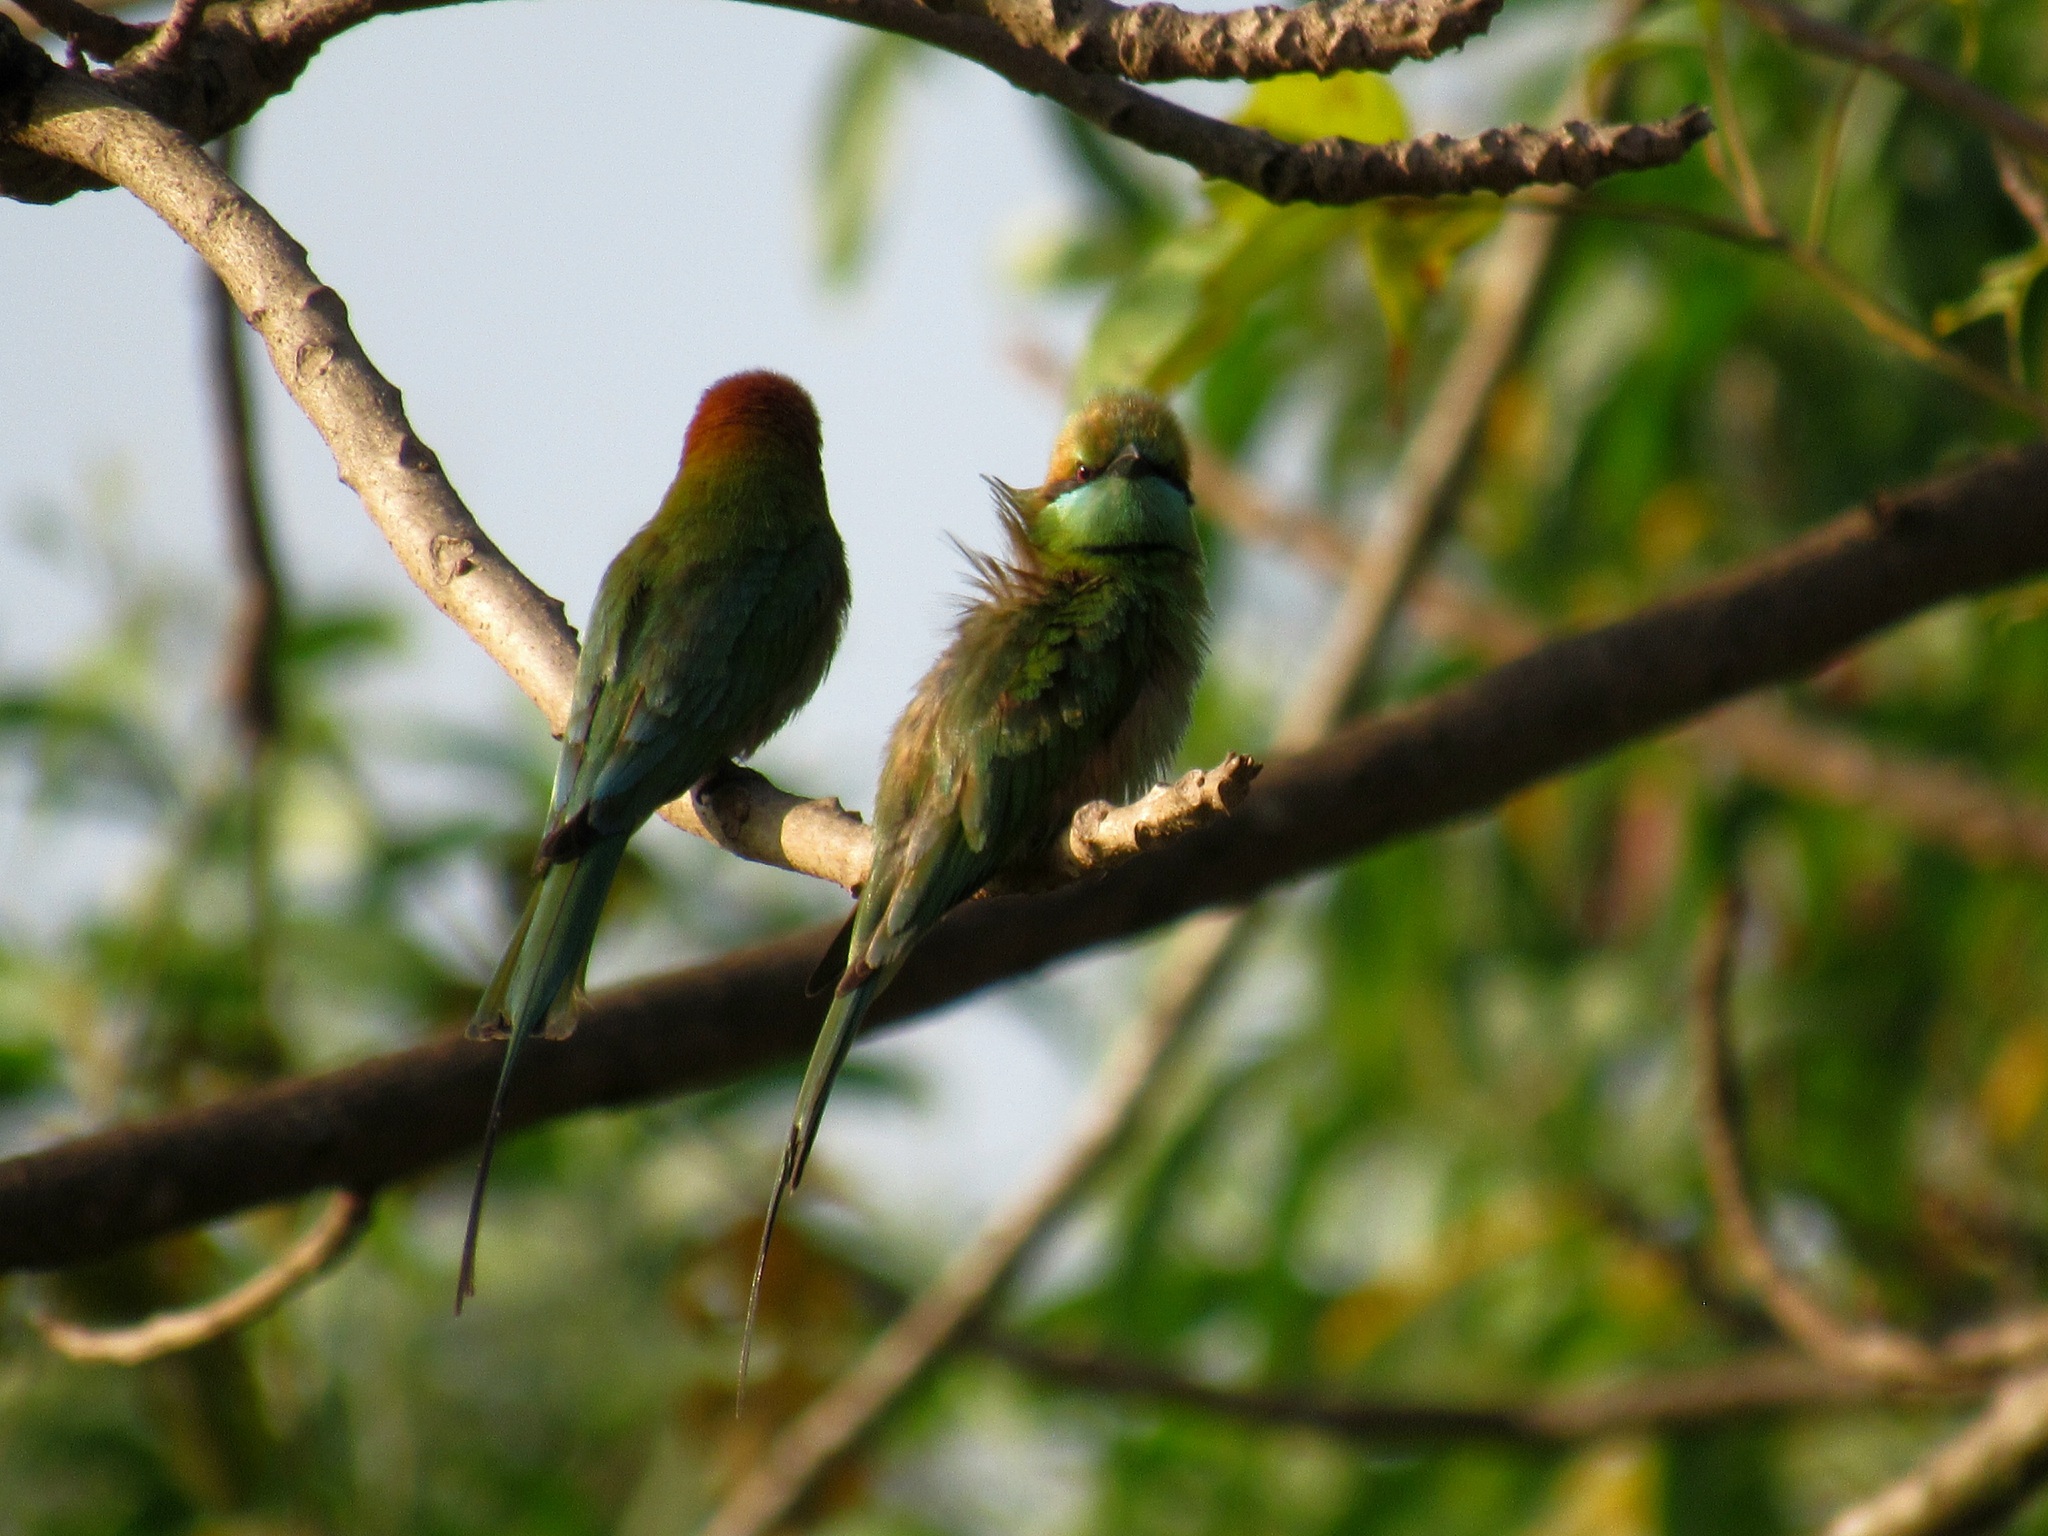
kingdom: Animalia
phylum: Chordata
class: Aves
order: Coraciiformes
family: Meropidae
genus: Merops
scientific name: Merops orientalis
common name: Green bee-eater
